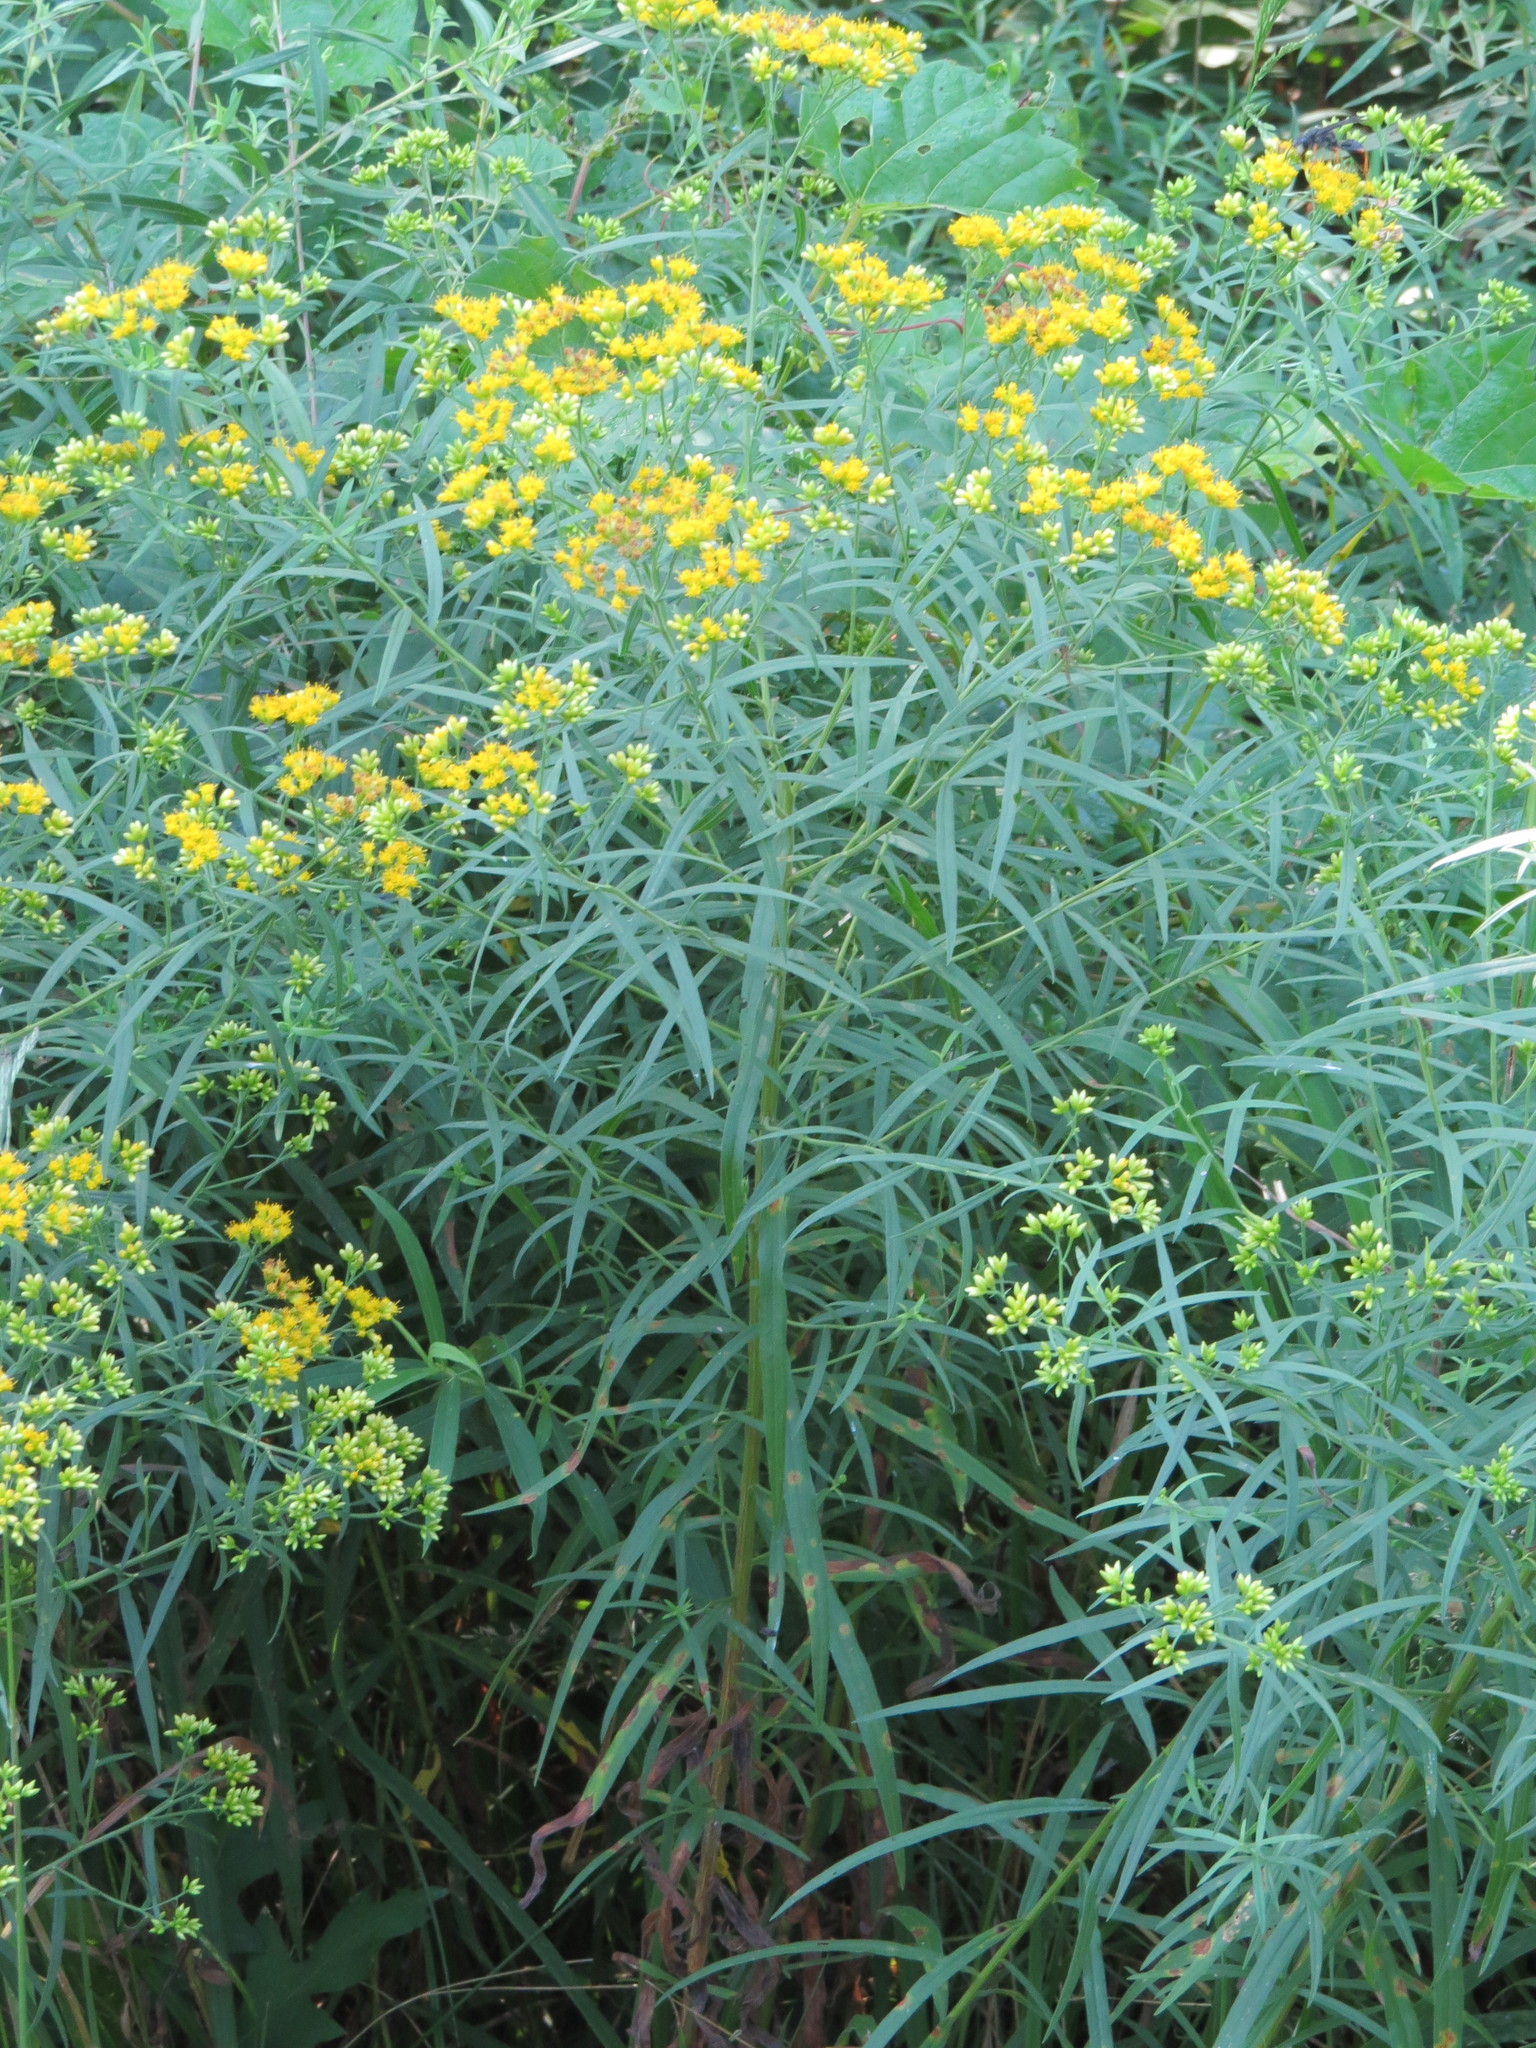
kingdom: Plantae
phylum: Tracheophyta
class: Magnoliopsida
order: Asterales
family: Asteraceae
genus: Euthamia
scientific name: Euthamia graminifolia
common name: Common goldentop
